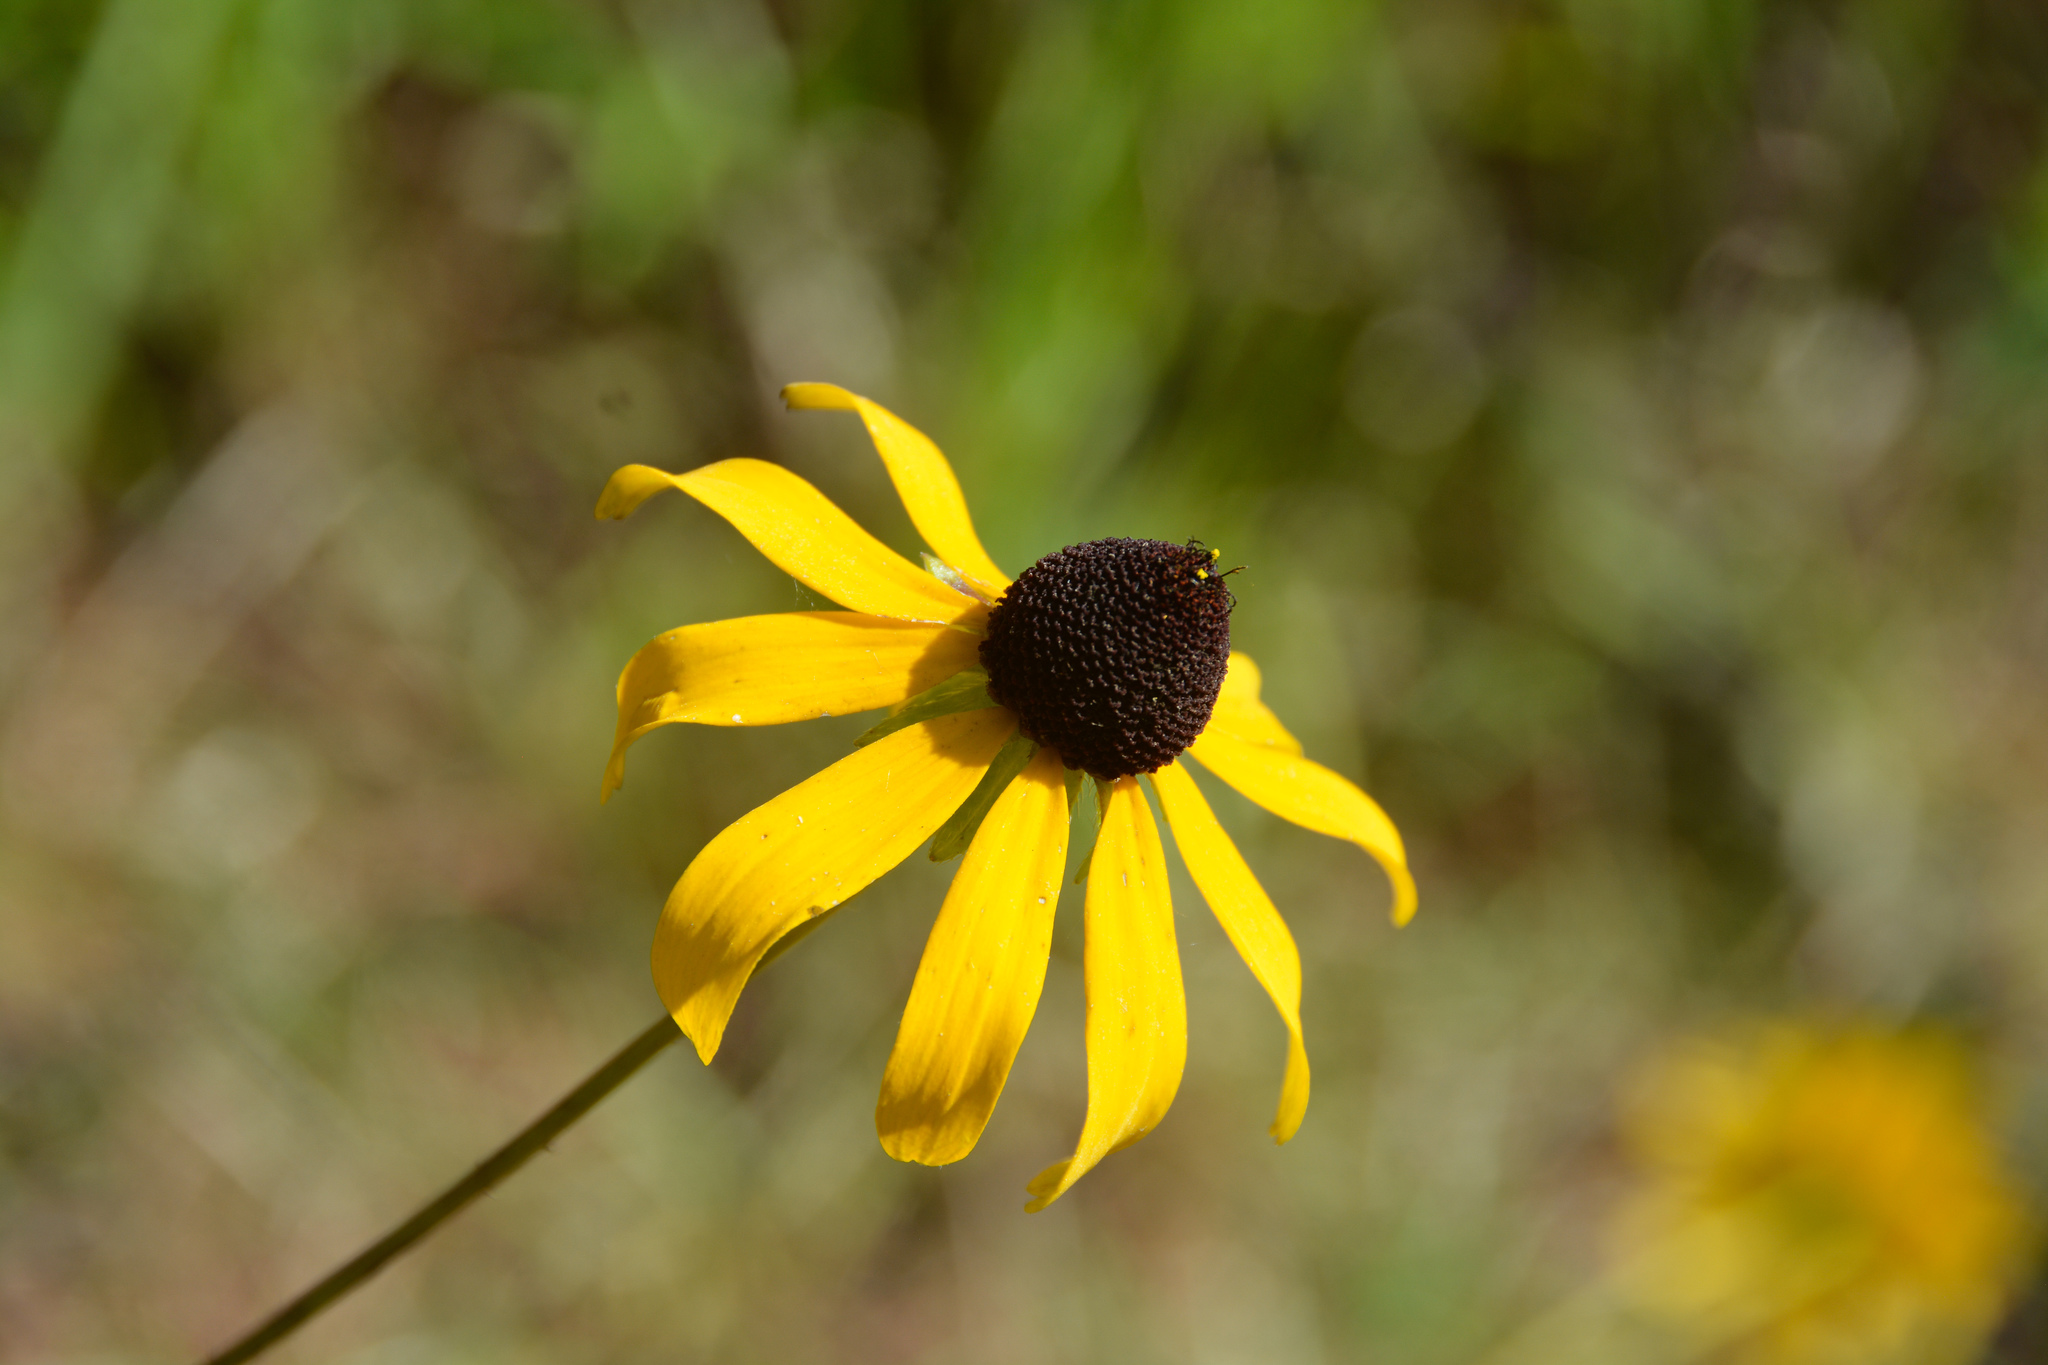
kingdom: Plantae
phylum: Tracheophyta
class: Magnoliopsida
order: Asterales
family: Asteraceae
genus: Rudbeckia
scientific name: Rudbeckia hirta
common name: Black-eyed-susan
